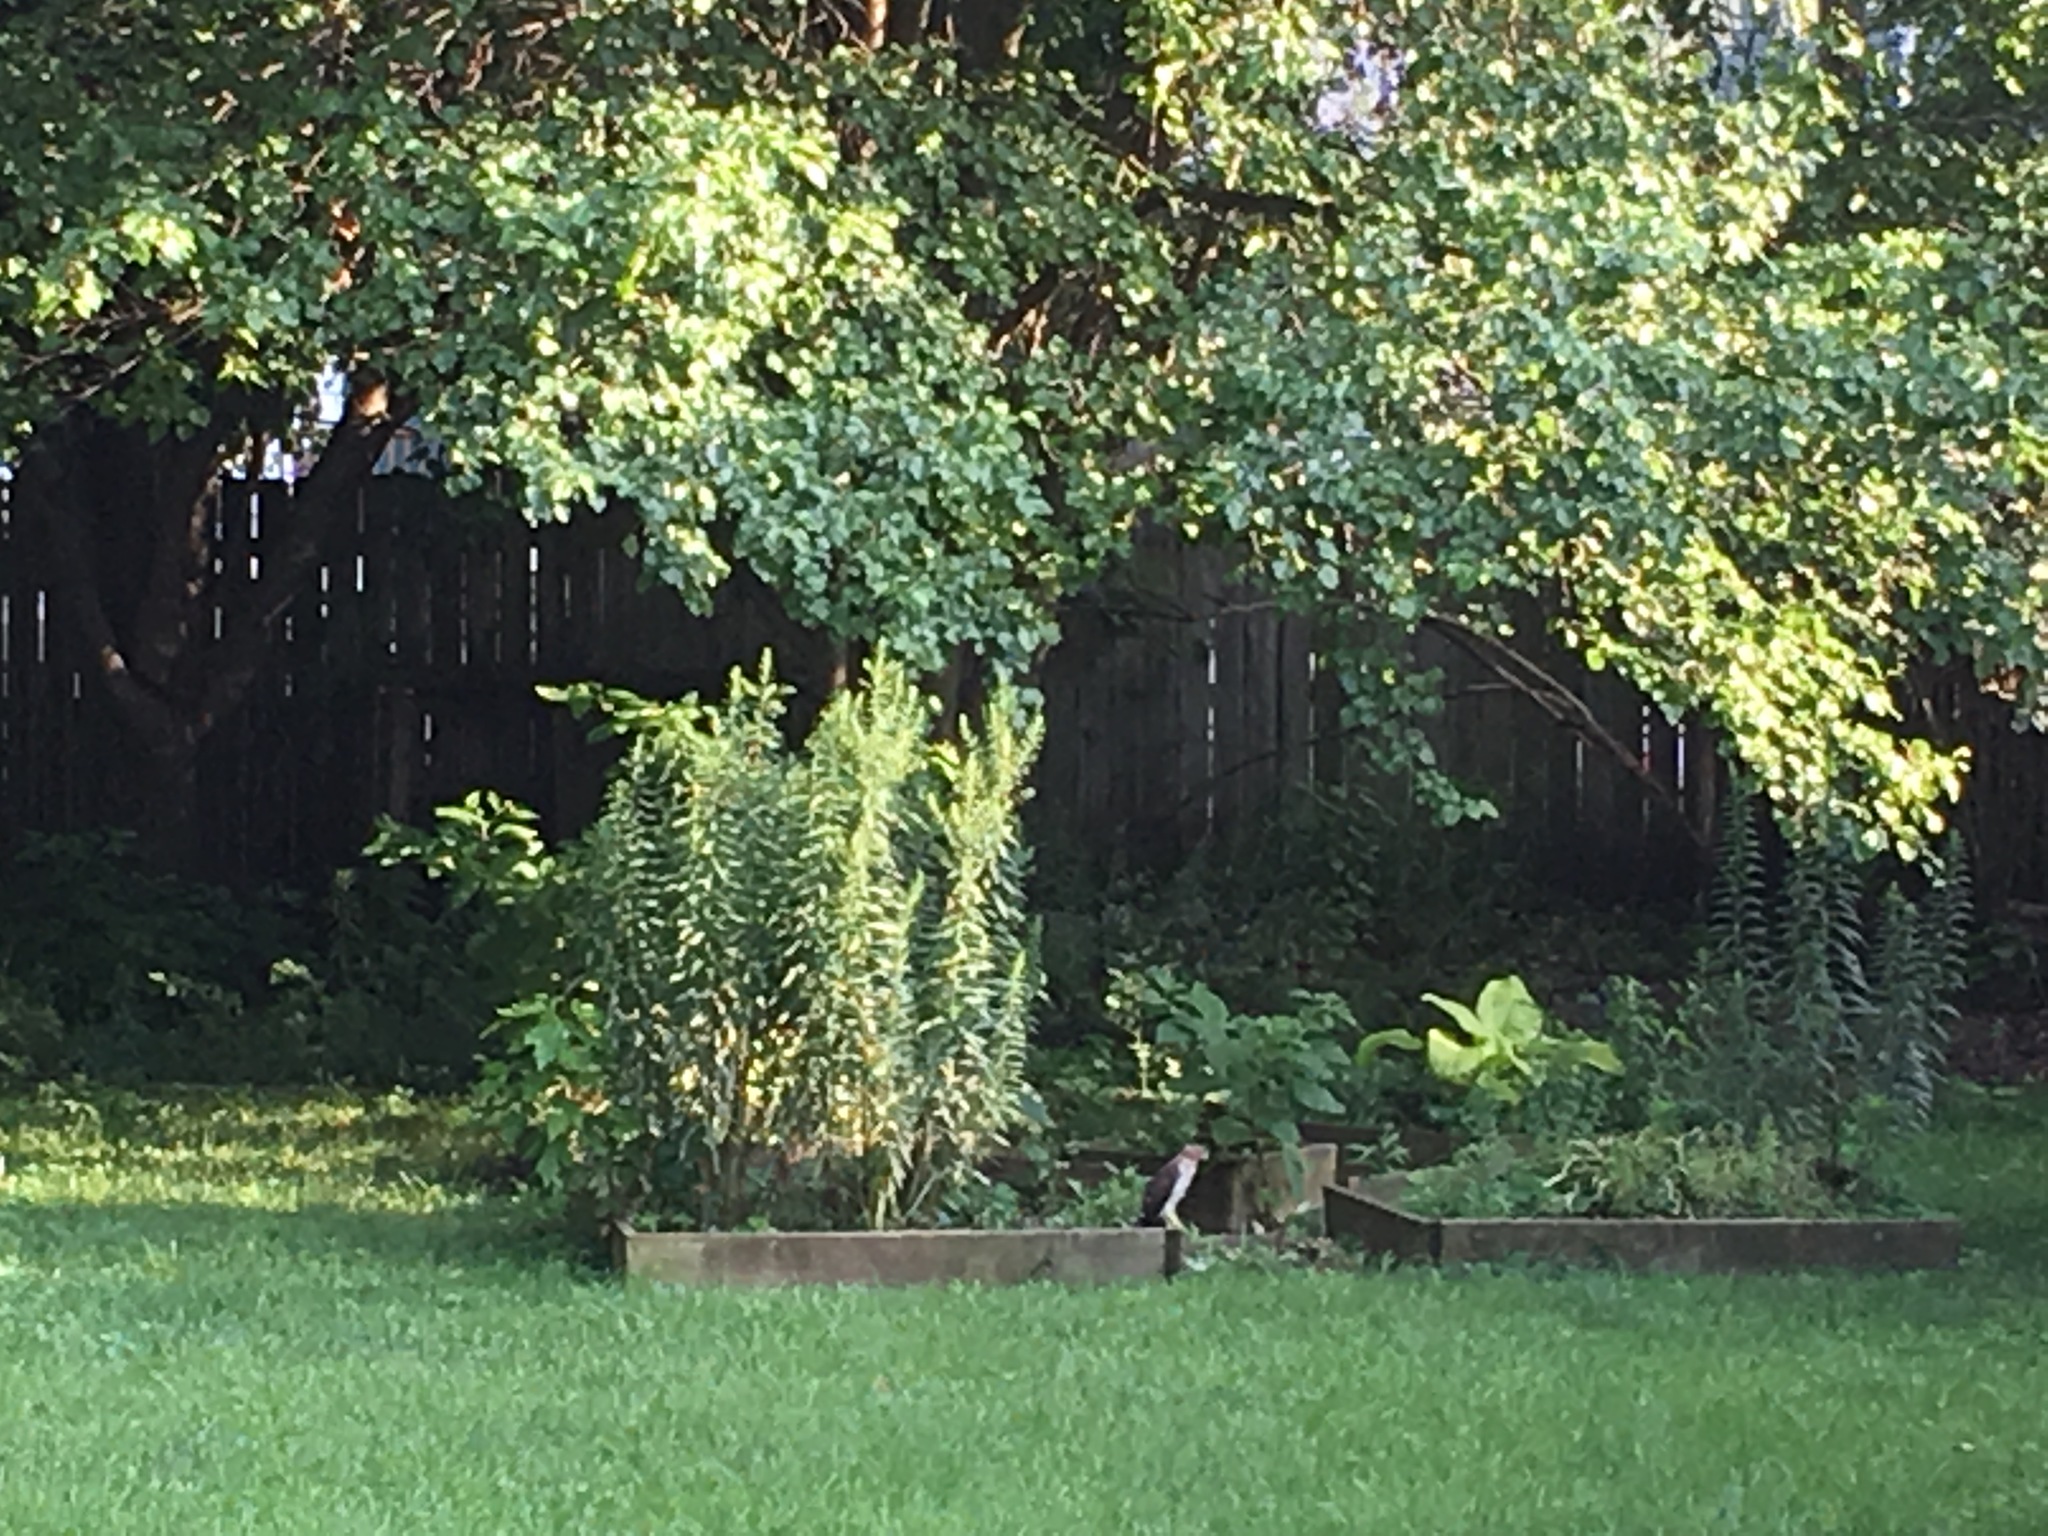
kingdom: Animalia
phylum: Chordata
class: Aves
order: Accipitriformes
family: Accipitridae
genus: Accipiter
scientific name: Accipiter cooperii
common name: Cooper's hawk
